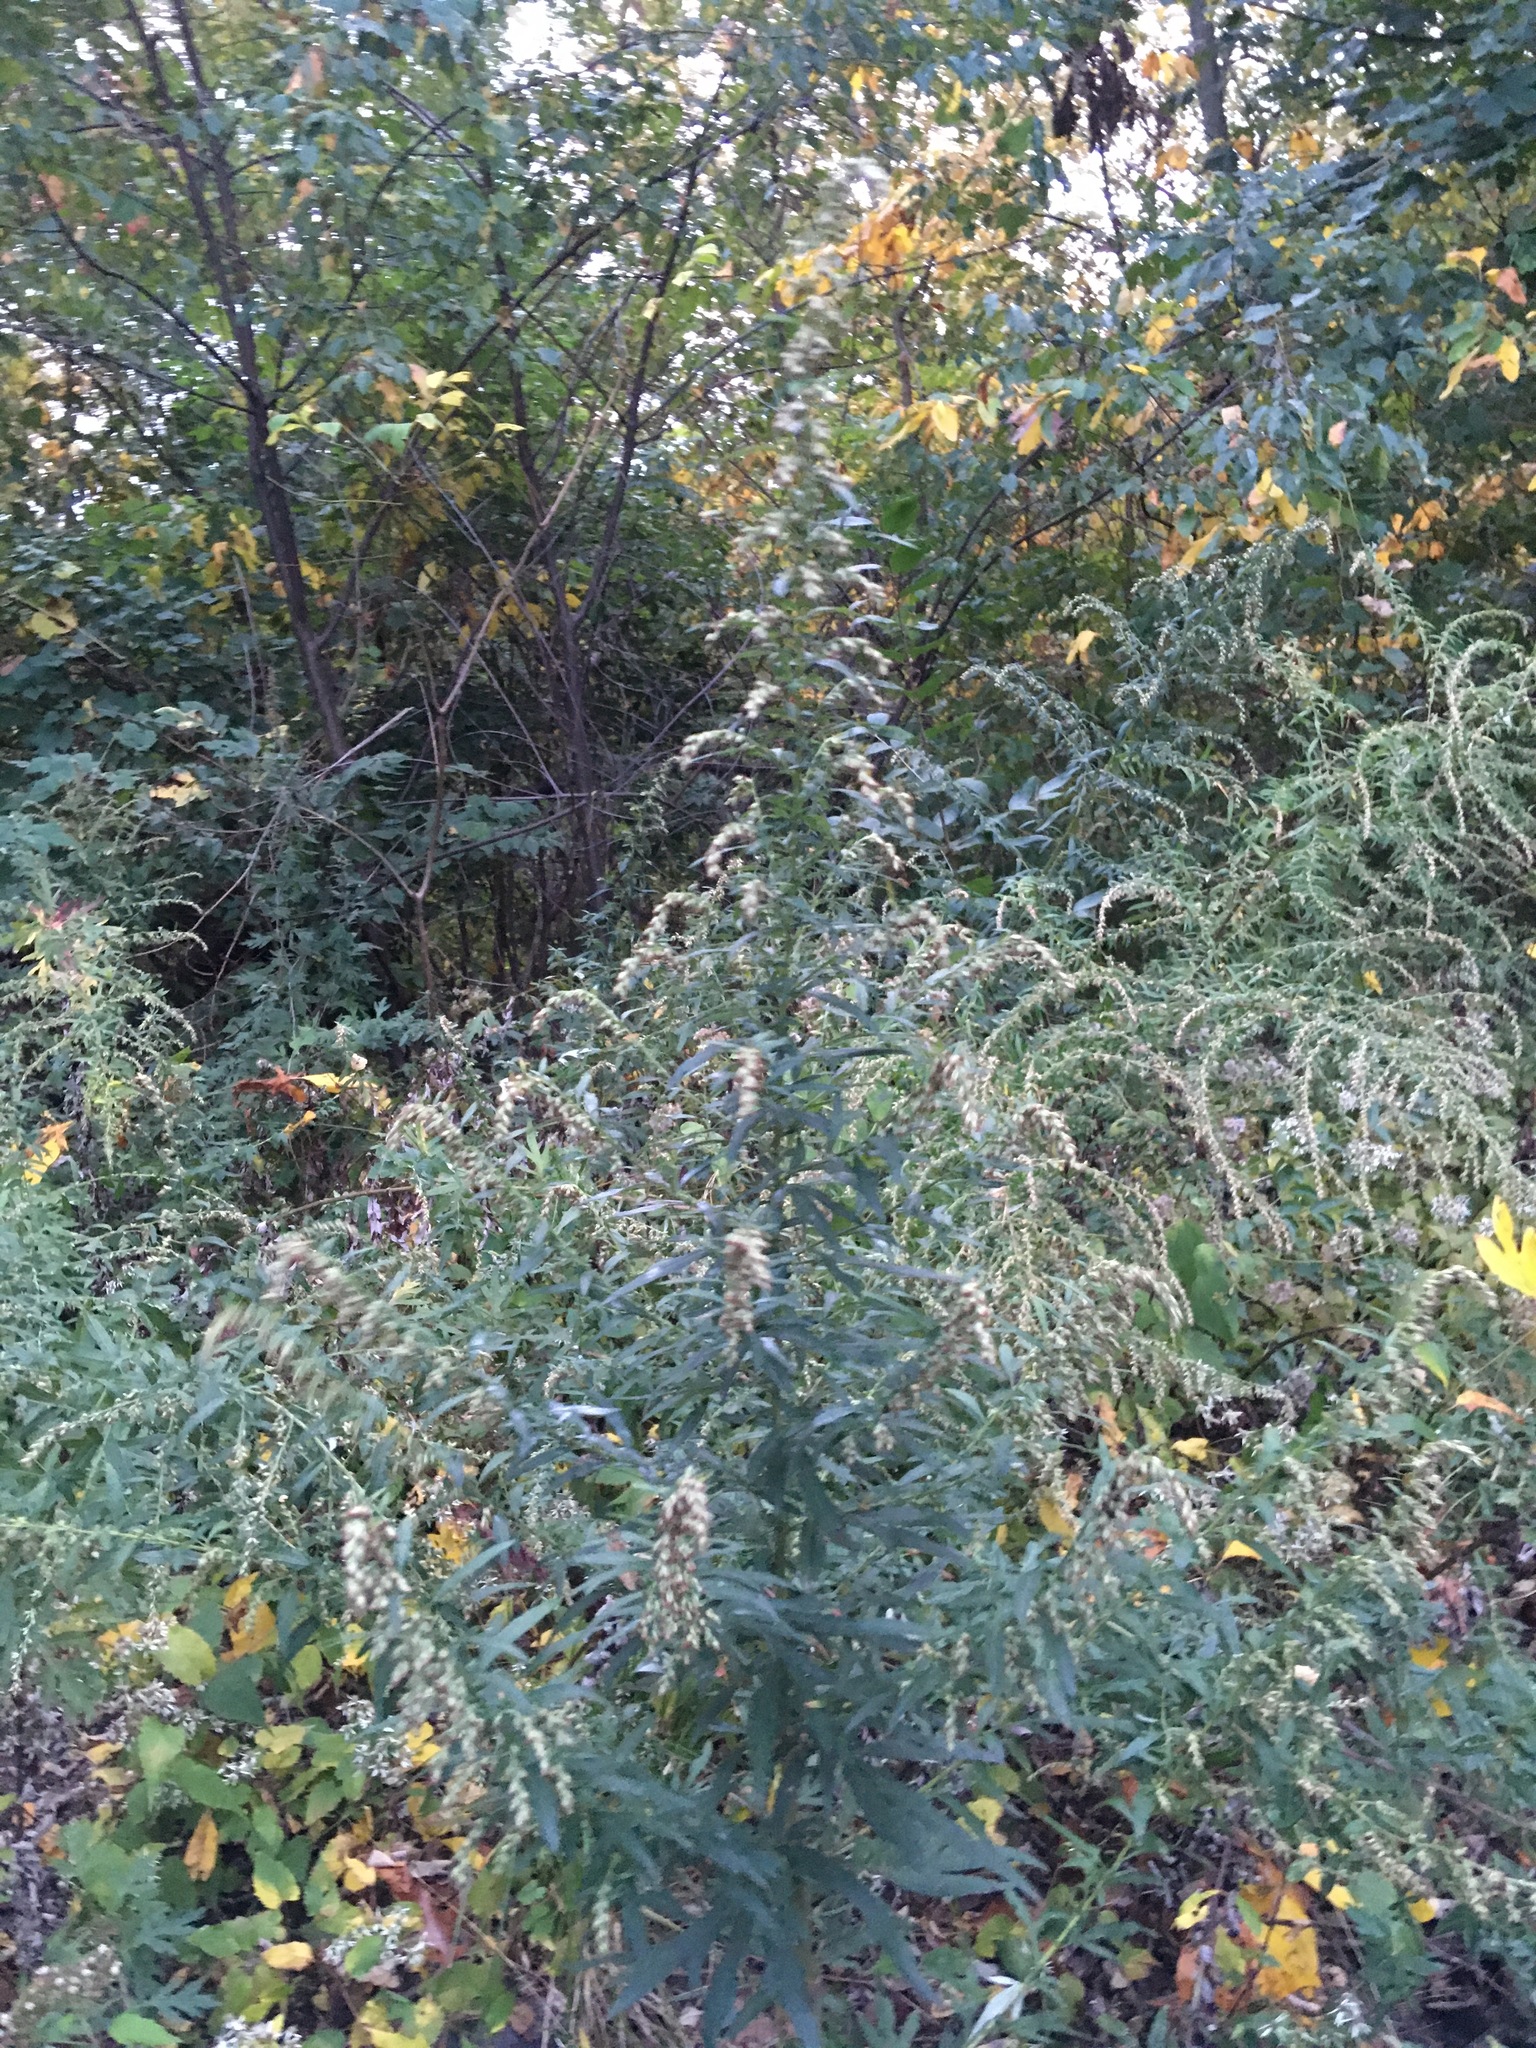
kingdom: Plantae
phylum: Tracheophyta
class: Magnoliopsida
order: Asterales
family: Asteraceae
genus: Artemisia
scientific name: Artemisia vulgaris
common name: Mugwort
